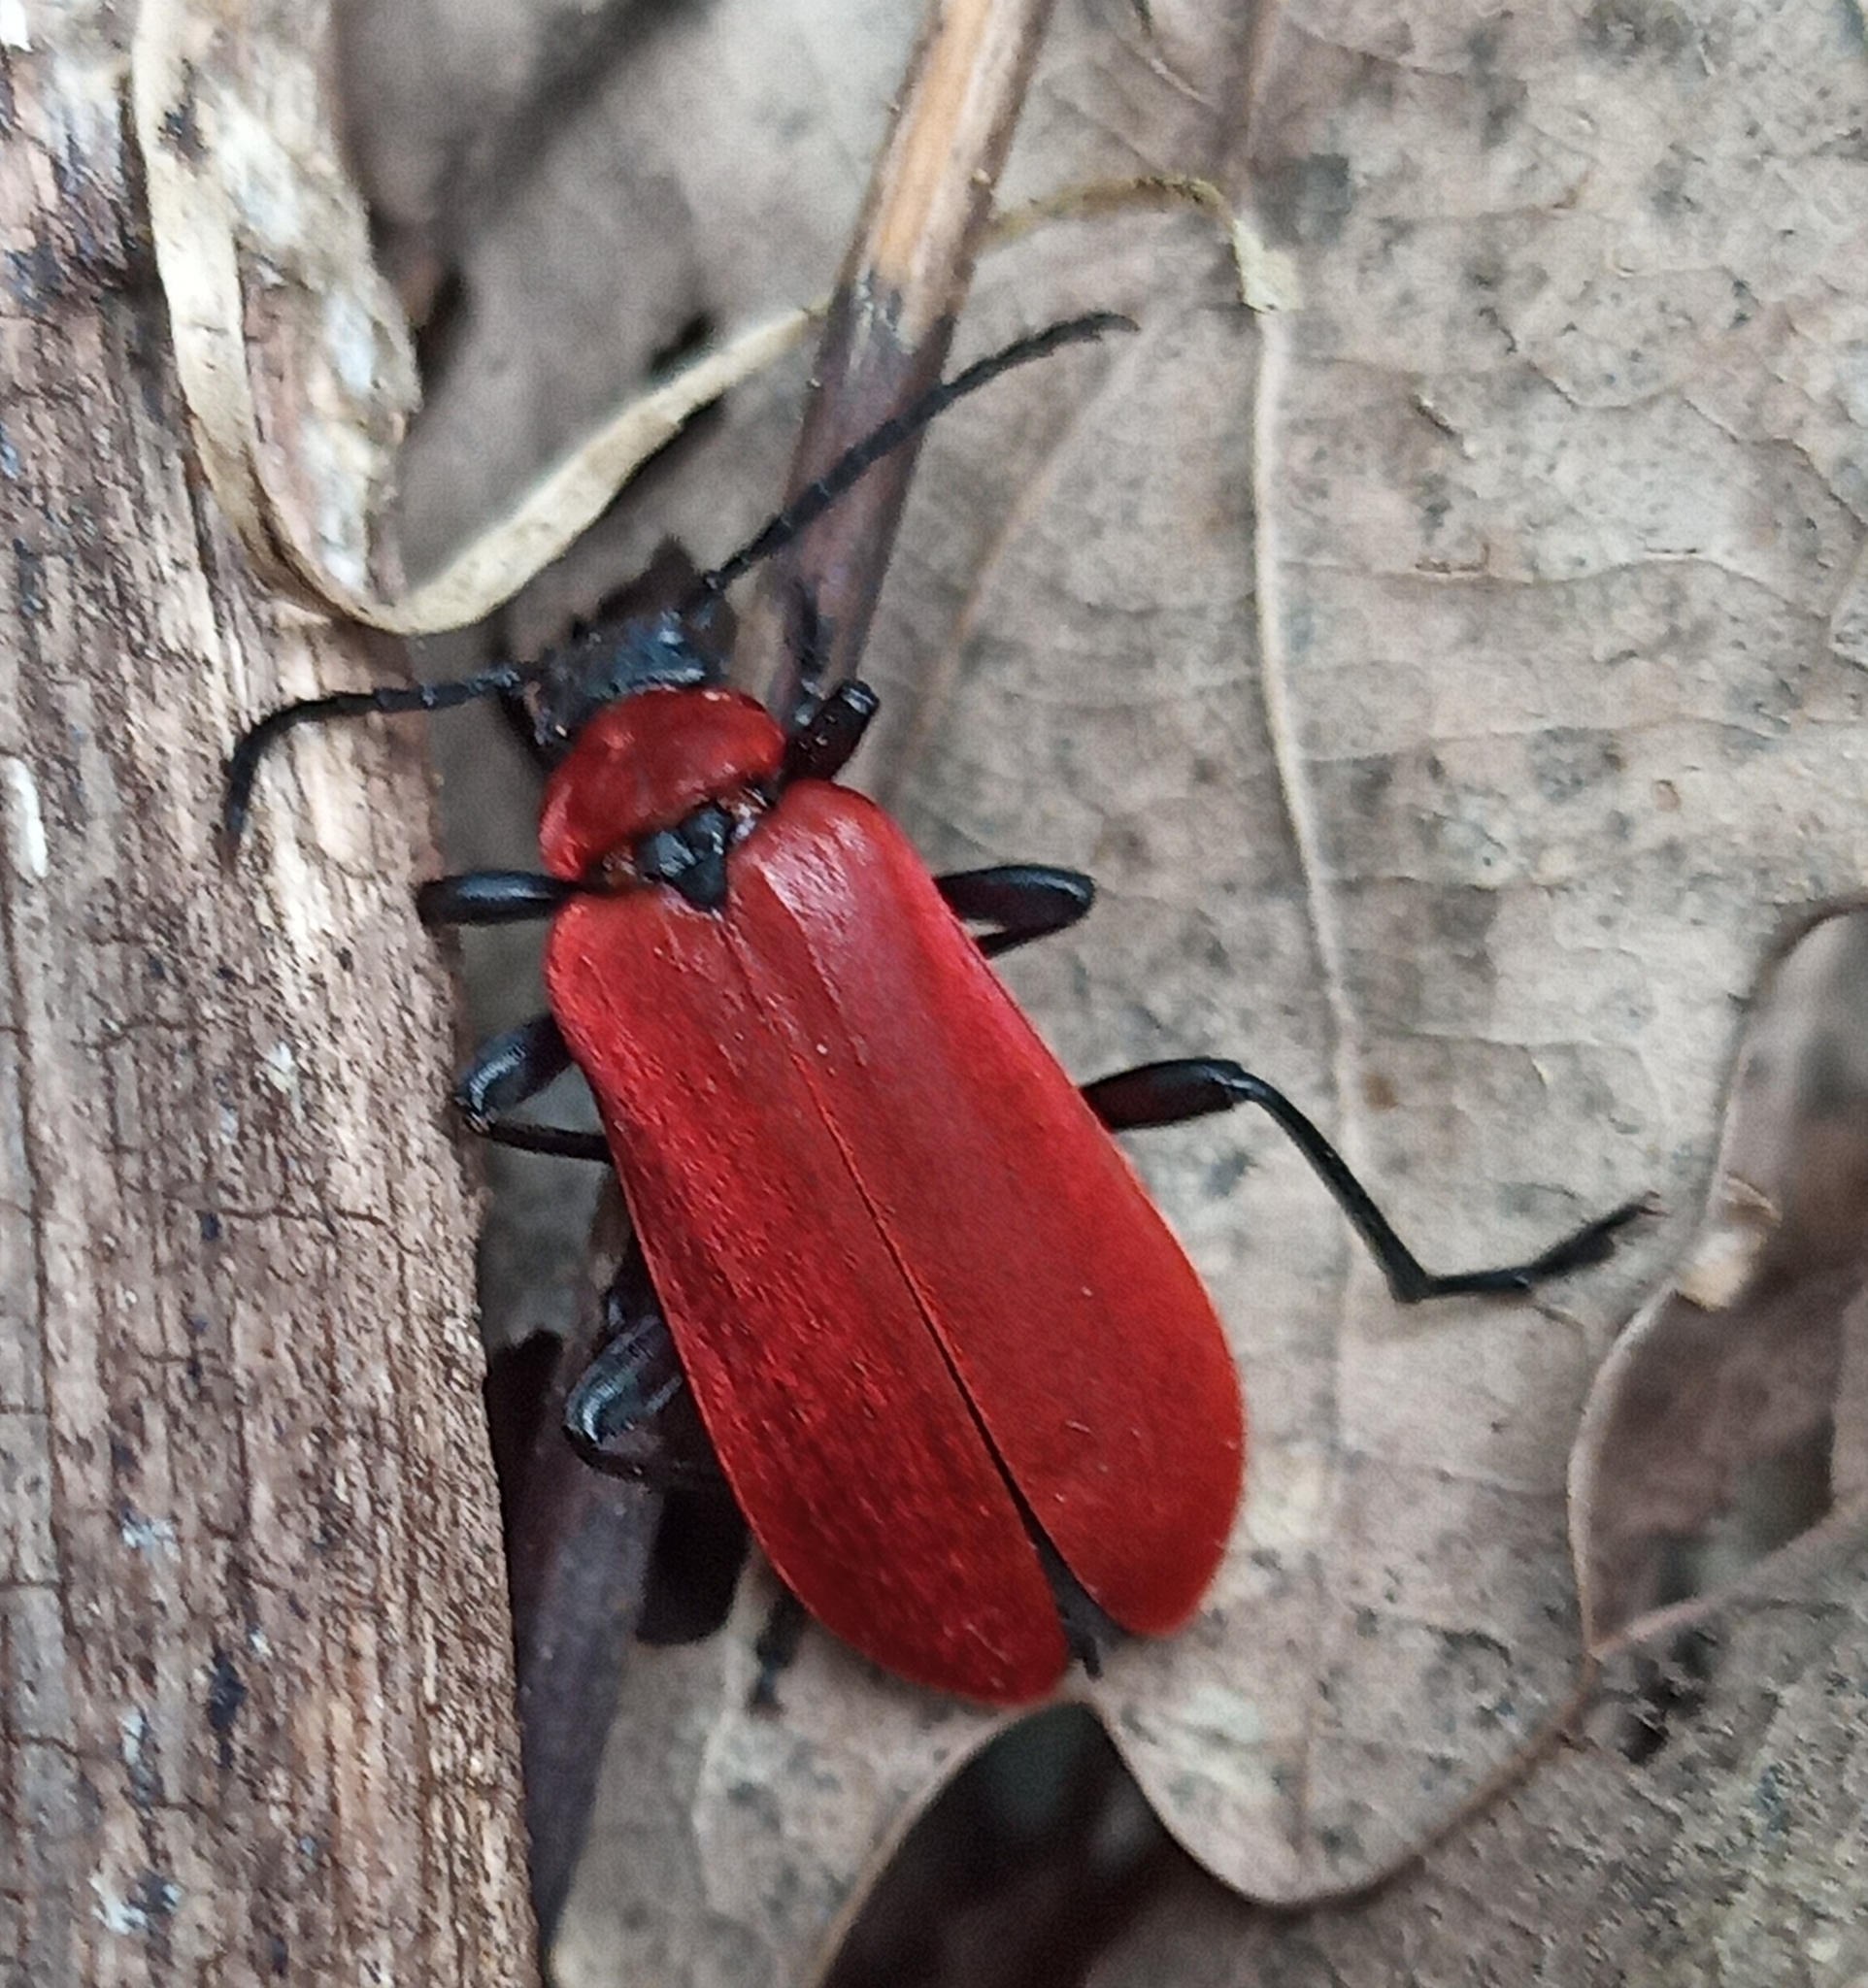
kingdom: Animalia
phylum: Arthropoda
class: Insecta
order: Coleoptera
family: Pyrochroidae
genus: Pyrochroa
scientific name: Pyrochroa coccinea
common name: Black-headed cardinal beetle
